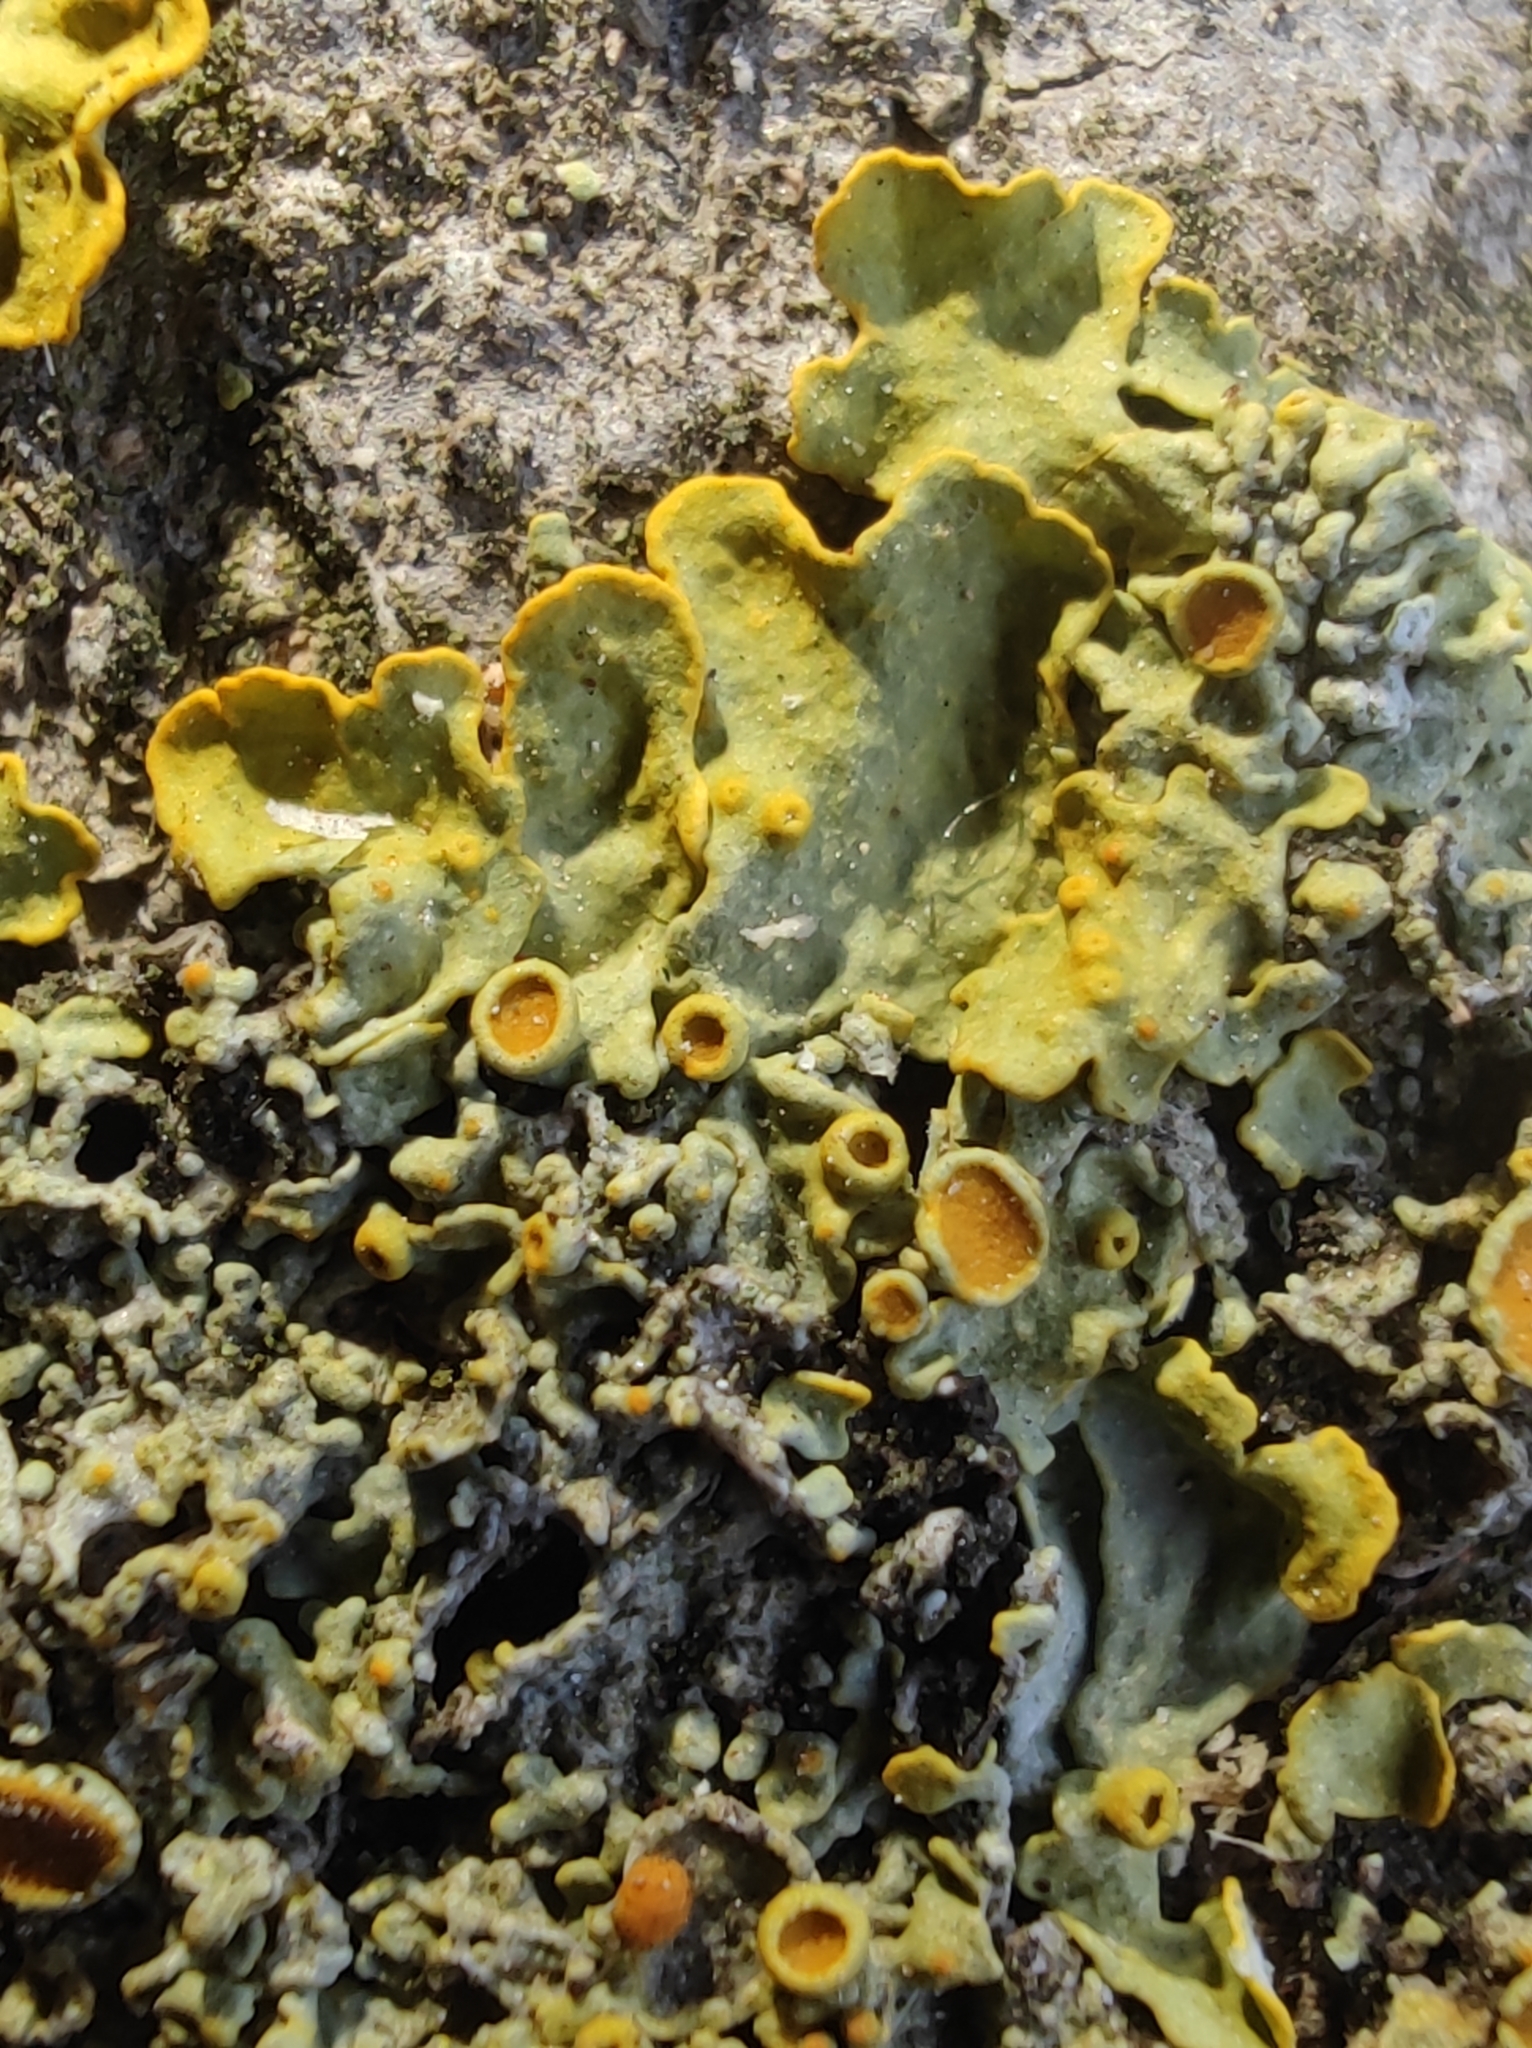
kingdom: Fungi
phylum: Ascomycota
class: Lecanoromycetes
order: Teloschistales
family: Teloschistaceae
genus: Xanthoria
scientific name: Xanthoria parietina
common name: Common orange lichen
